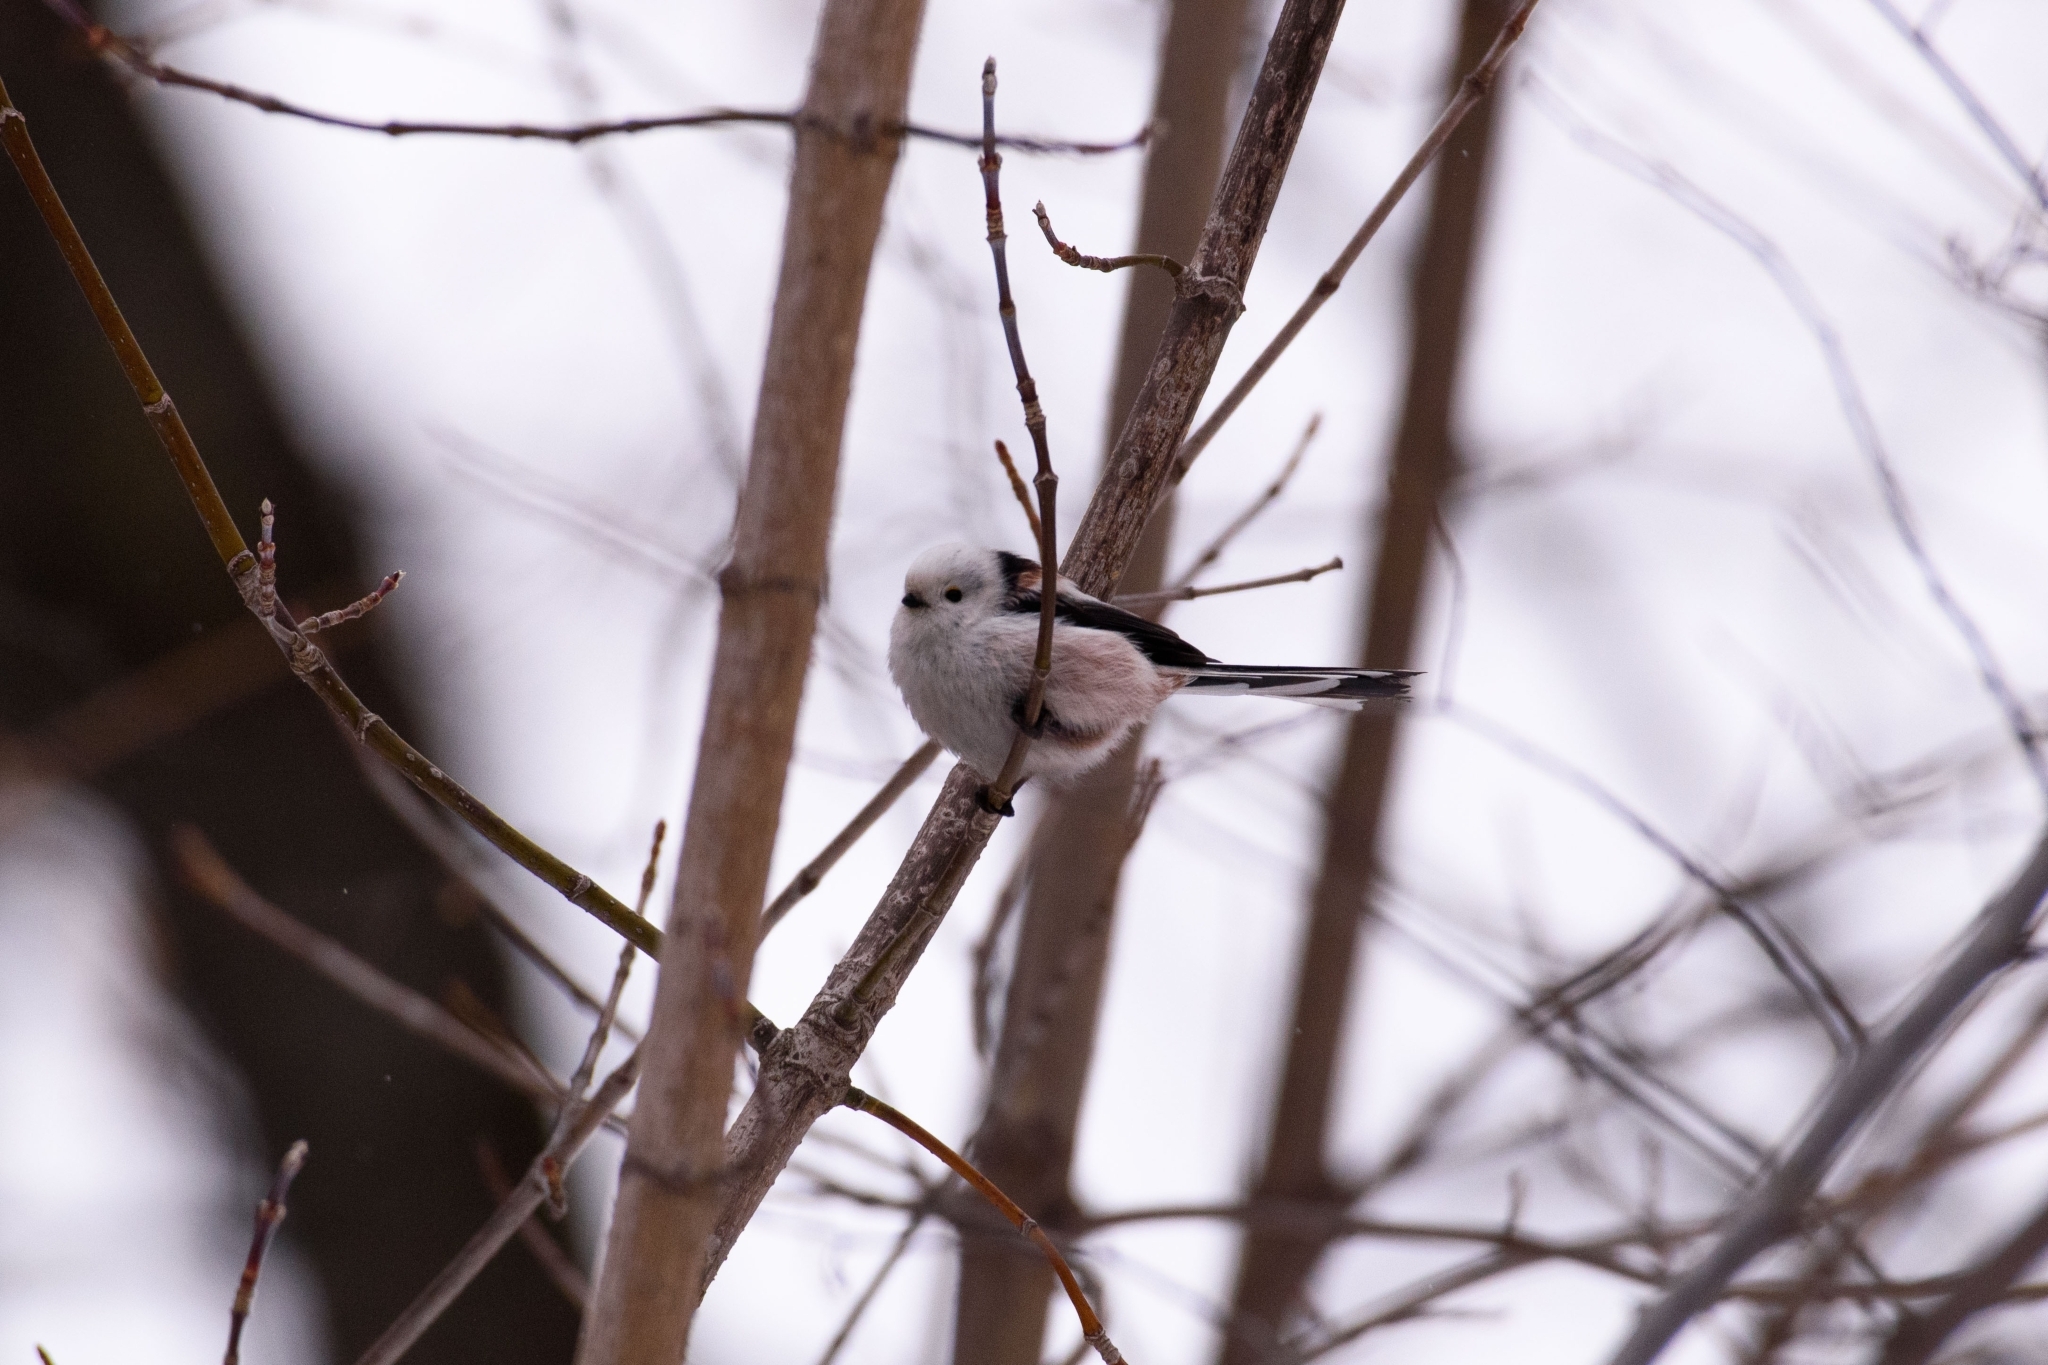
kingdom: Animalia
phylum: Chordata
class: Aves
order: Passeriformes
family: Aegithalidae
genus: Aegithalos
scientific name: Aegithalos caudatus
